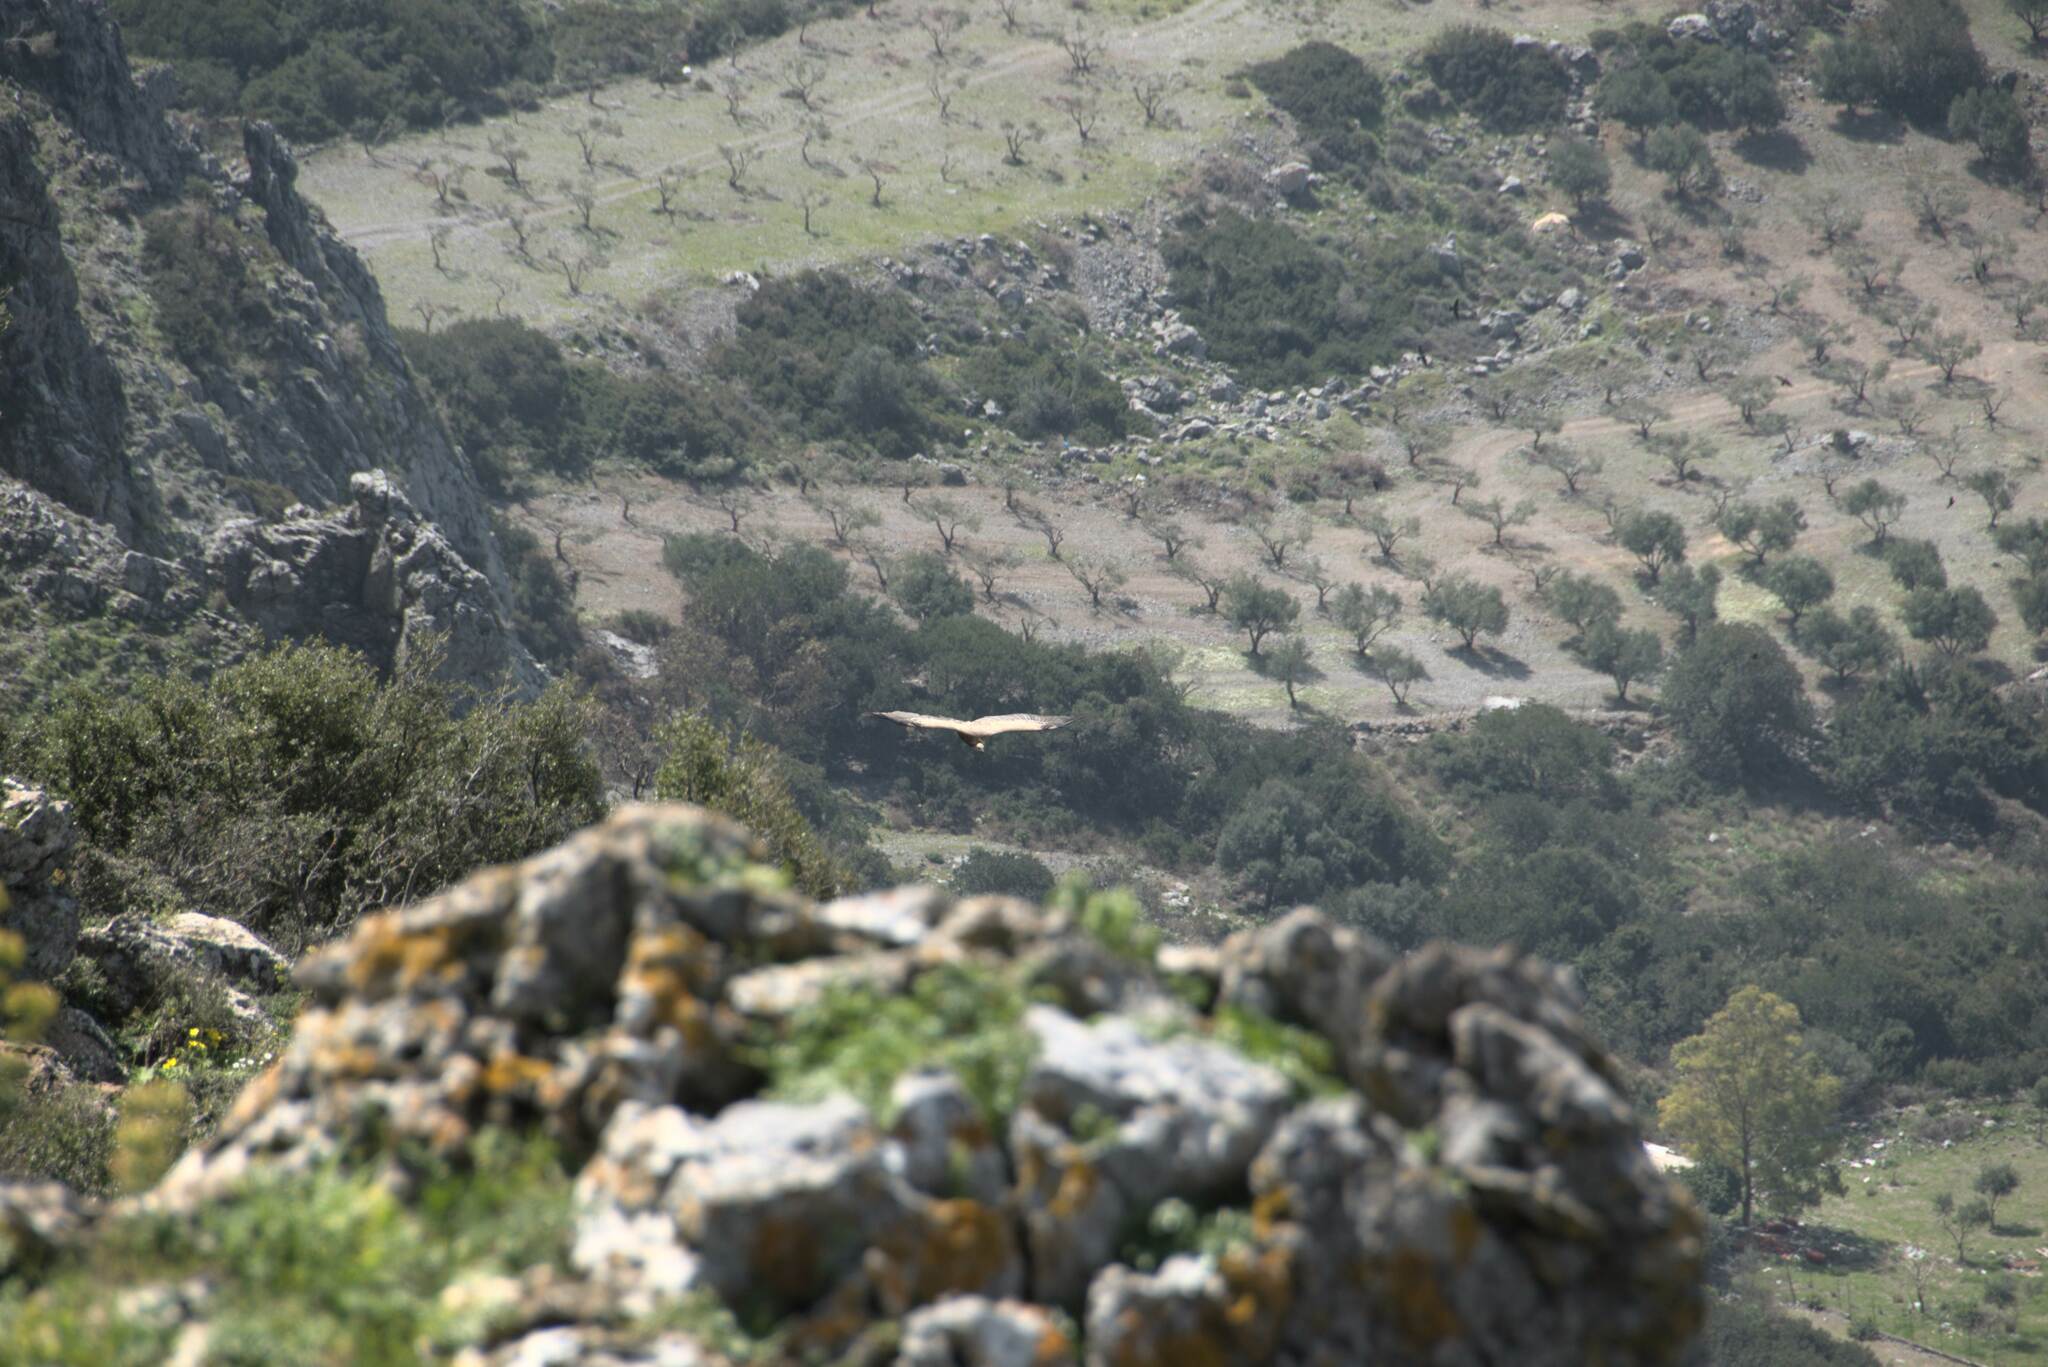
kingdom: Animalia
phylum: Chordata
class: Aves
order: Accipitriformes
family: Accipitridae
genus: Gyps
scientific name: Gyps fulvus
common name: Griffon vulture
